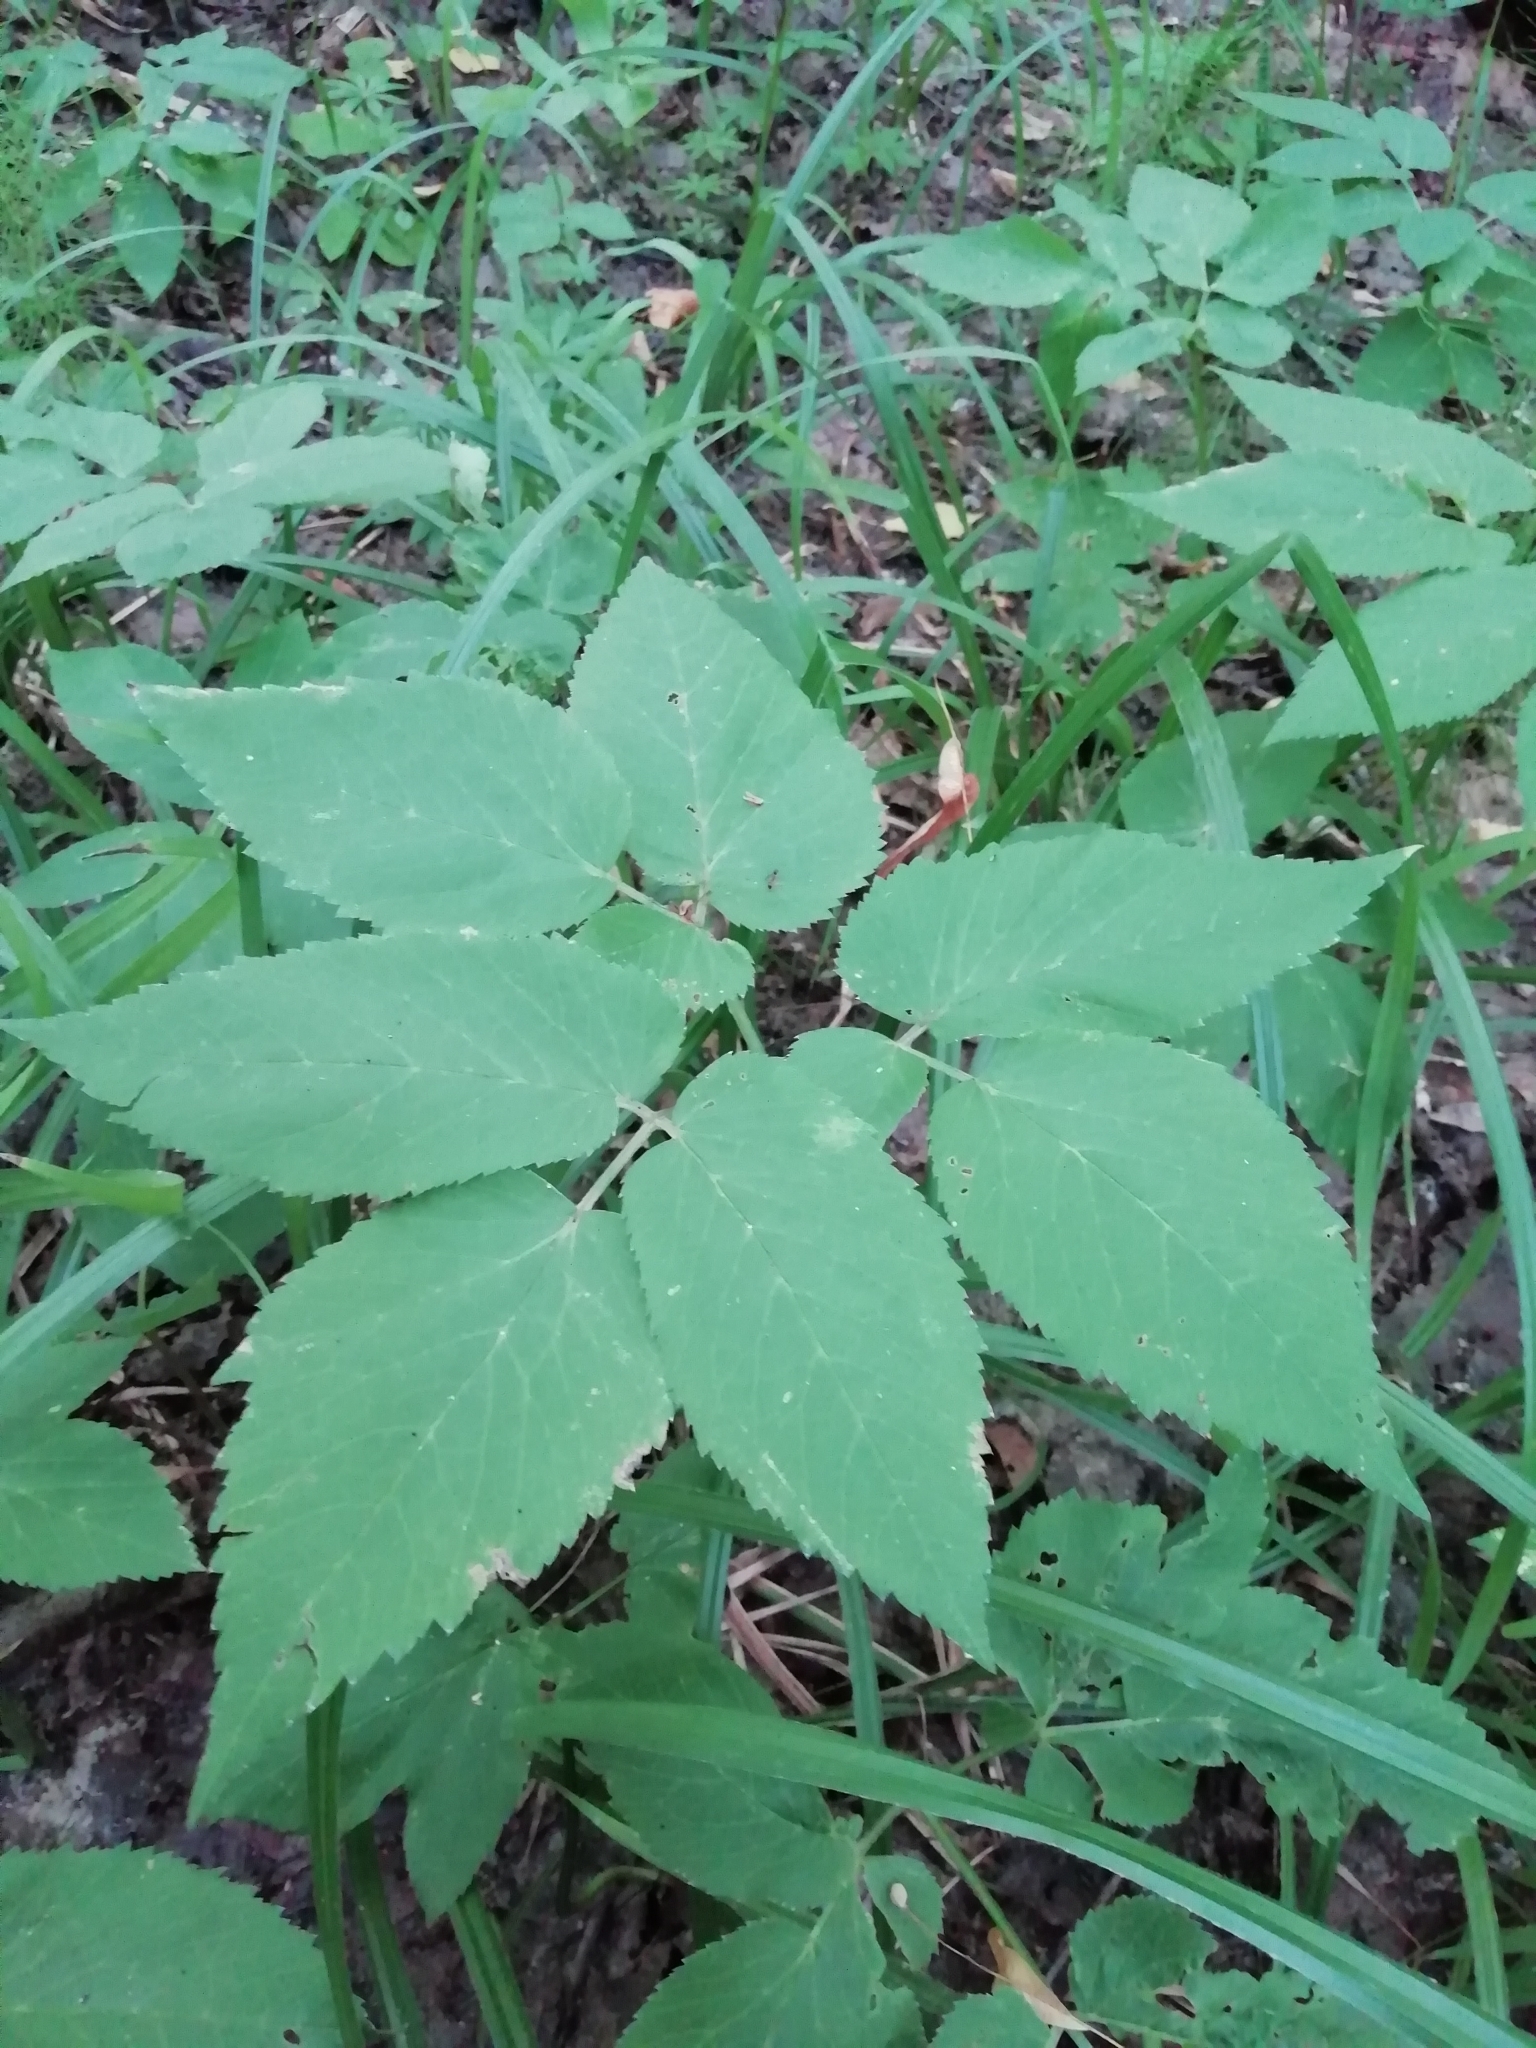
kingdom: Plantae
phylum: Tracheophyta
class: Magnoliopsida
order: Apiales
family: Apiaceae
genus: Aegopodium
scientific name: Aegopodium podagraria
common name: Ground-elder
